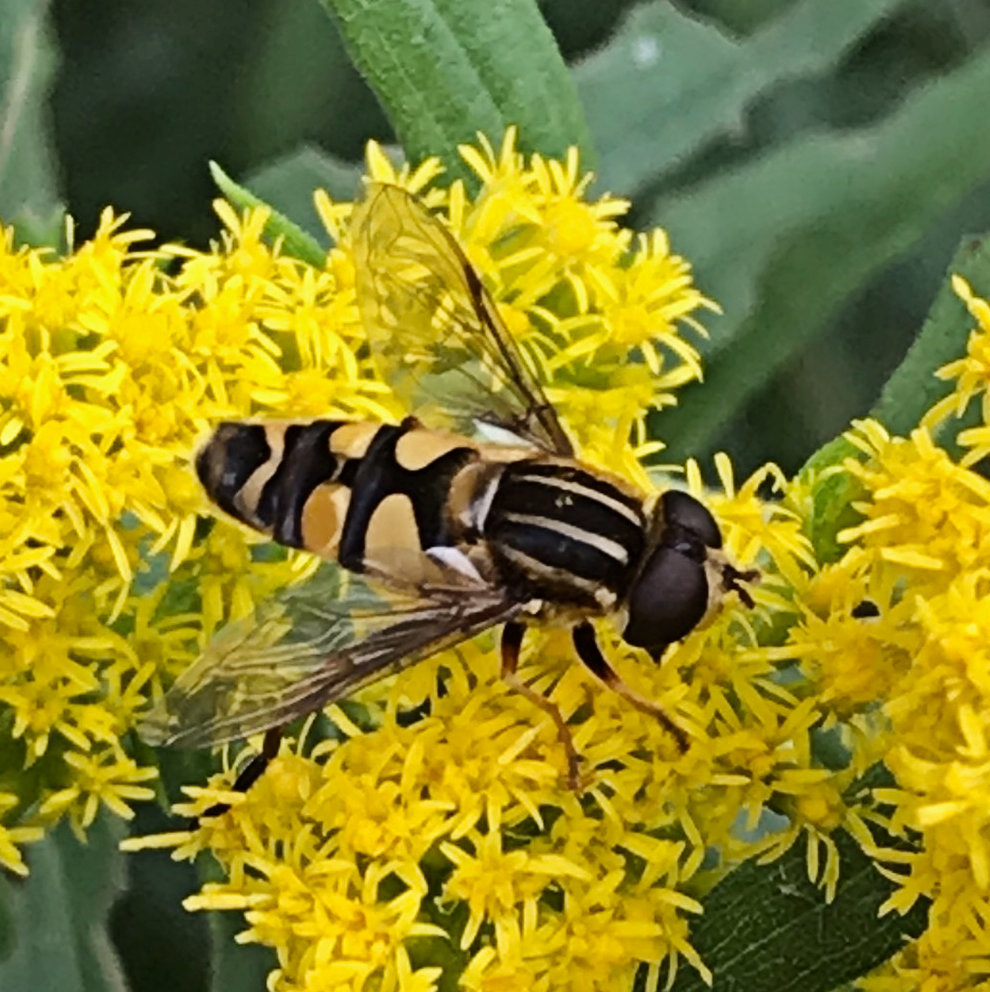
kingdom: Animalia
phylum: Arthropoda
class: Insecta
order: Diptera
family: Syrphidae
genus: Helophilus
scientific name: Helophilus fasciatus
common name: Narrow-headed marsh fly
